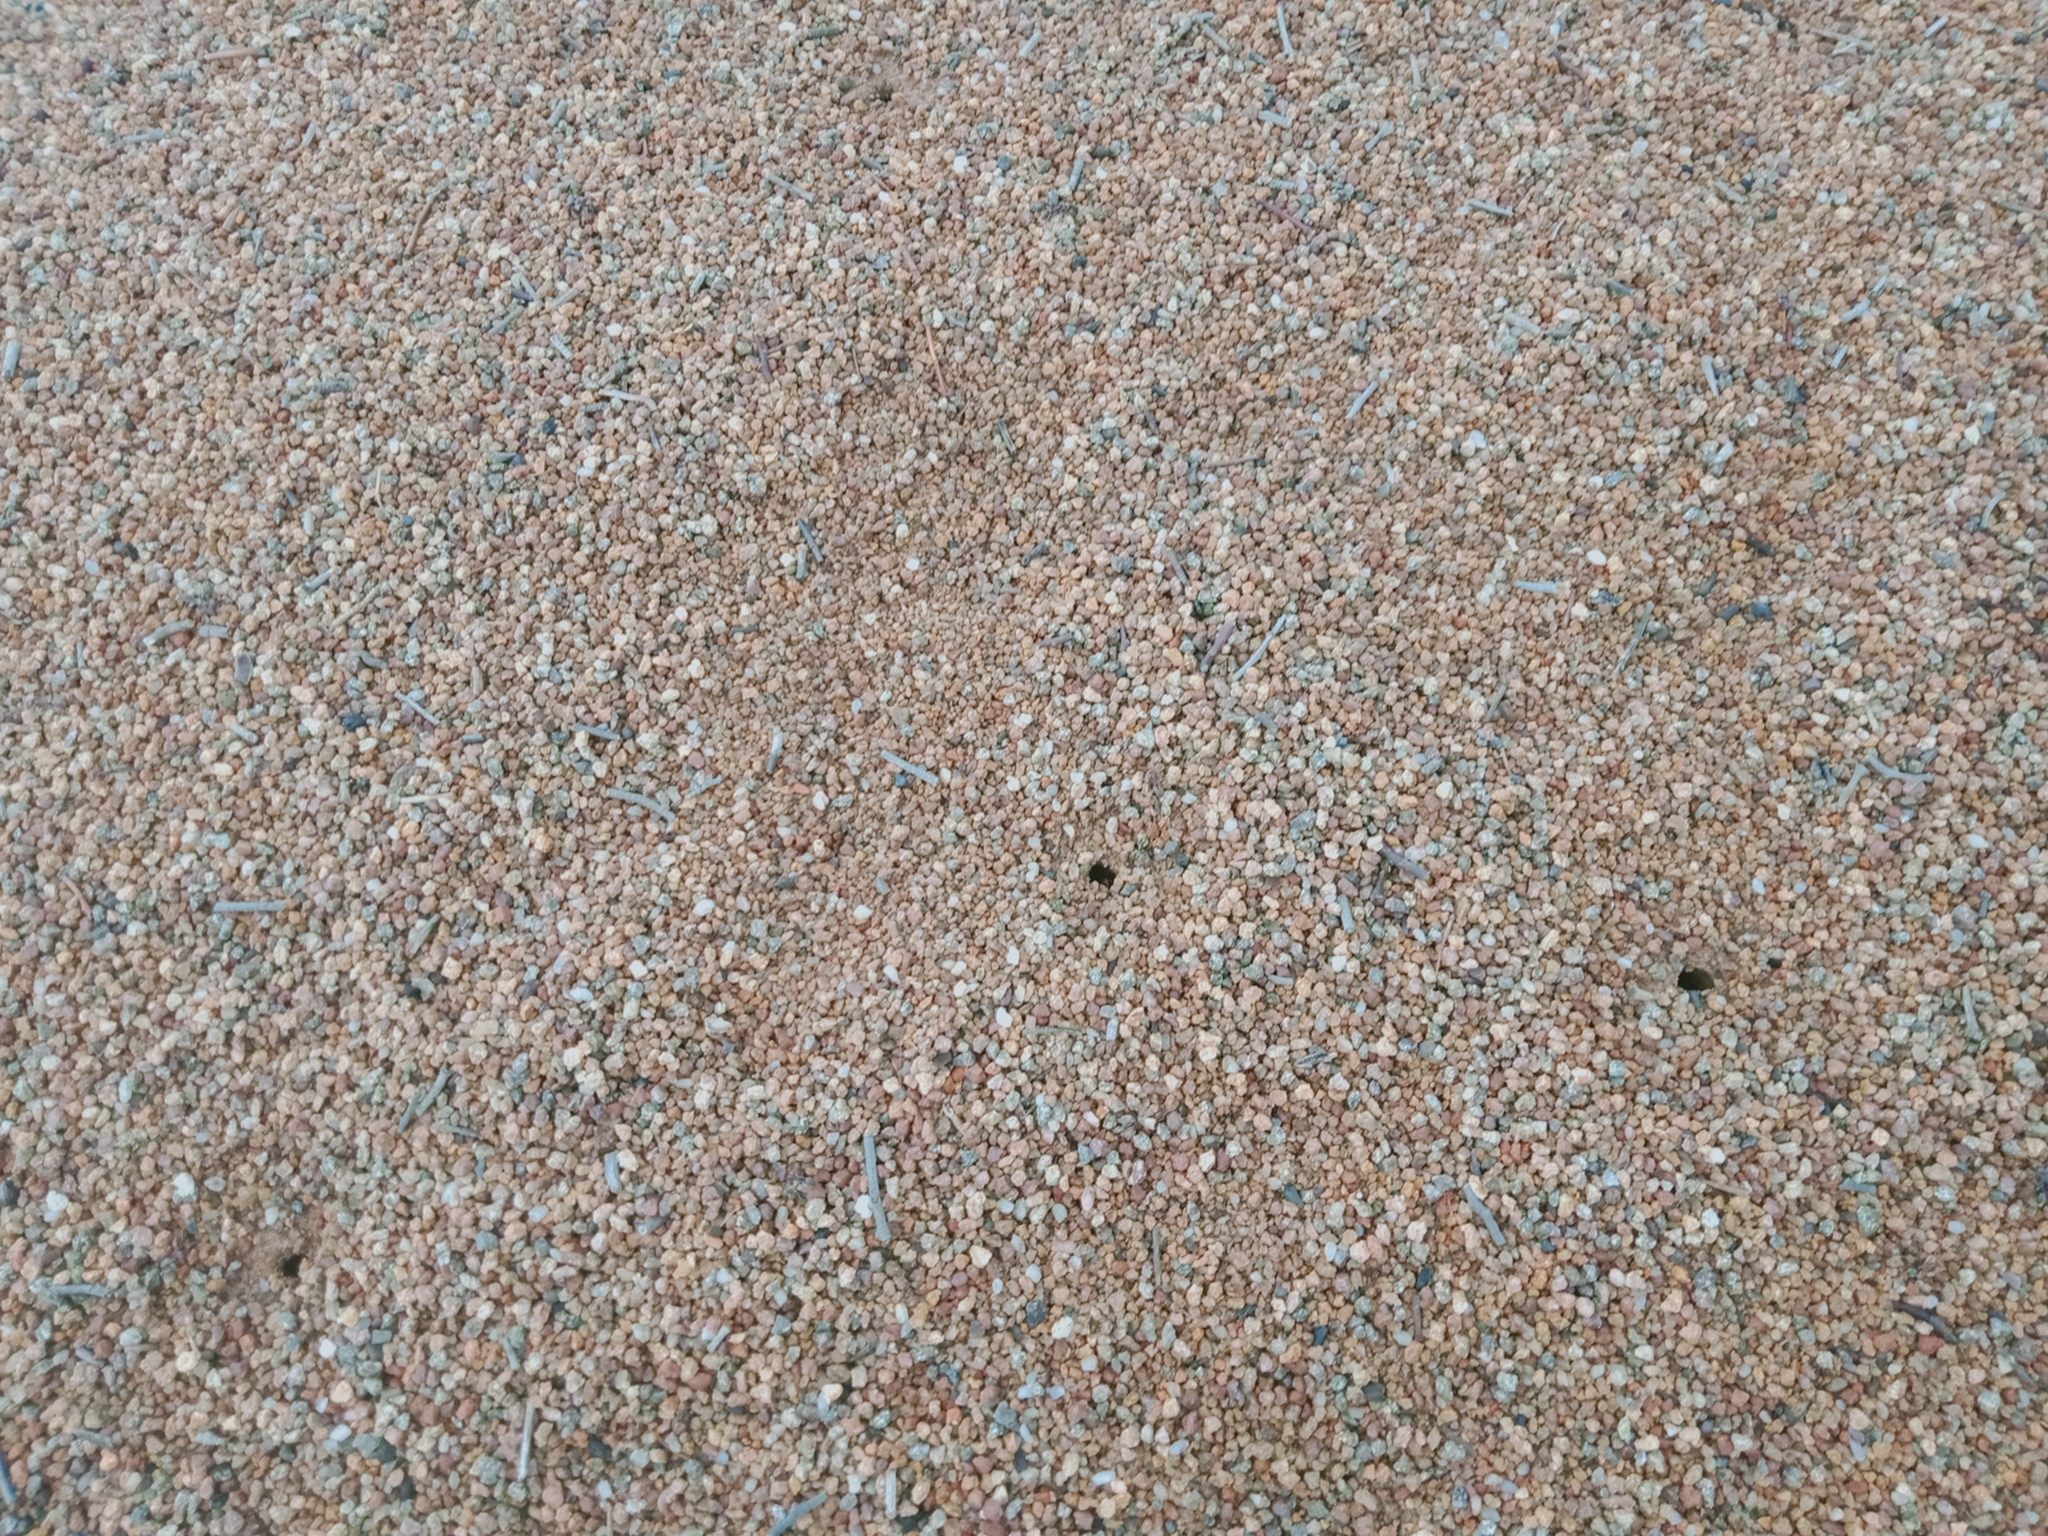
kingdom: Animalia
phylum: Arthropoda
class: Insecta
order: Hymenoptera
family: Formicidae
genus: Iridomyrmex
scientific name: Iridomyrmex purpureus
